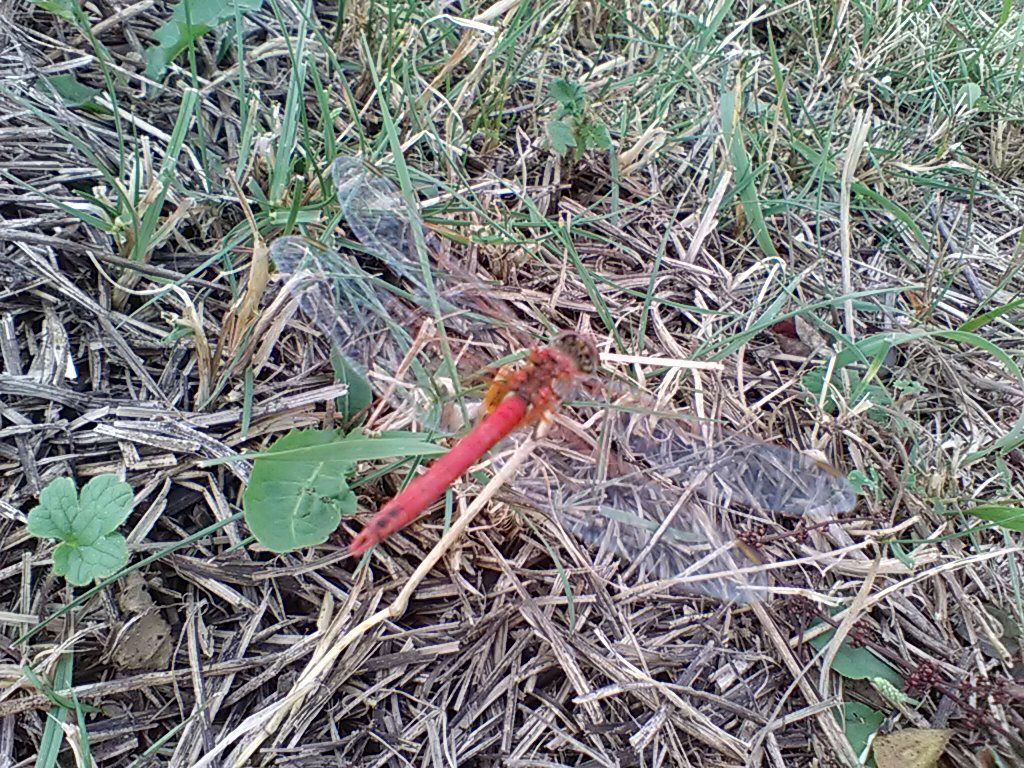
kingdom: Animalia
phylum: Arthropoda
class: Insecta
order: Odonata
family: Libellulidae
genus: Sympetrum
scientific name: Sympetrum fonscolombii
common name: Red-veined darter
